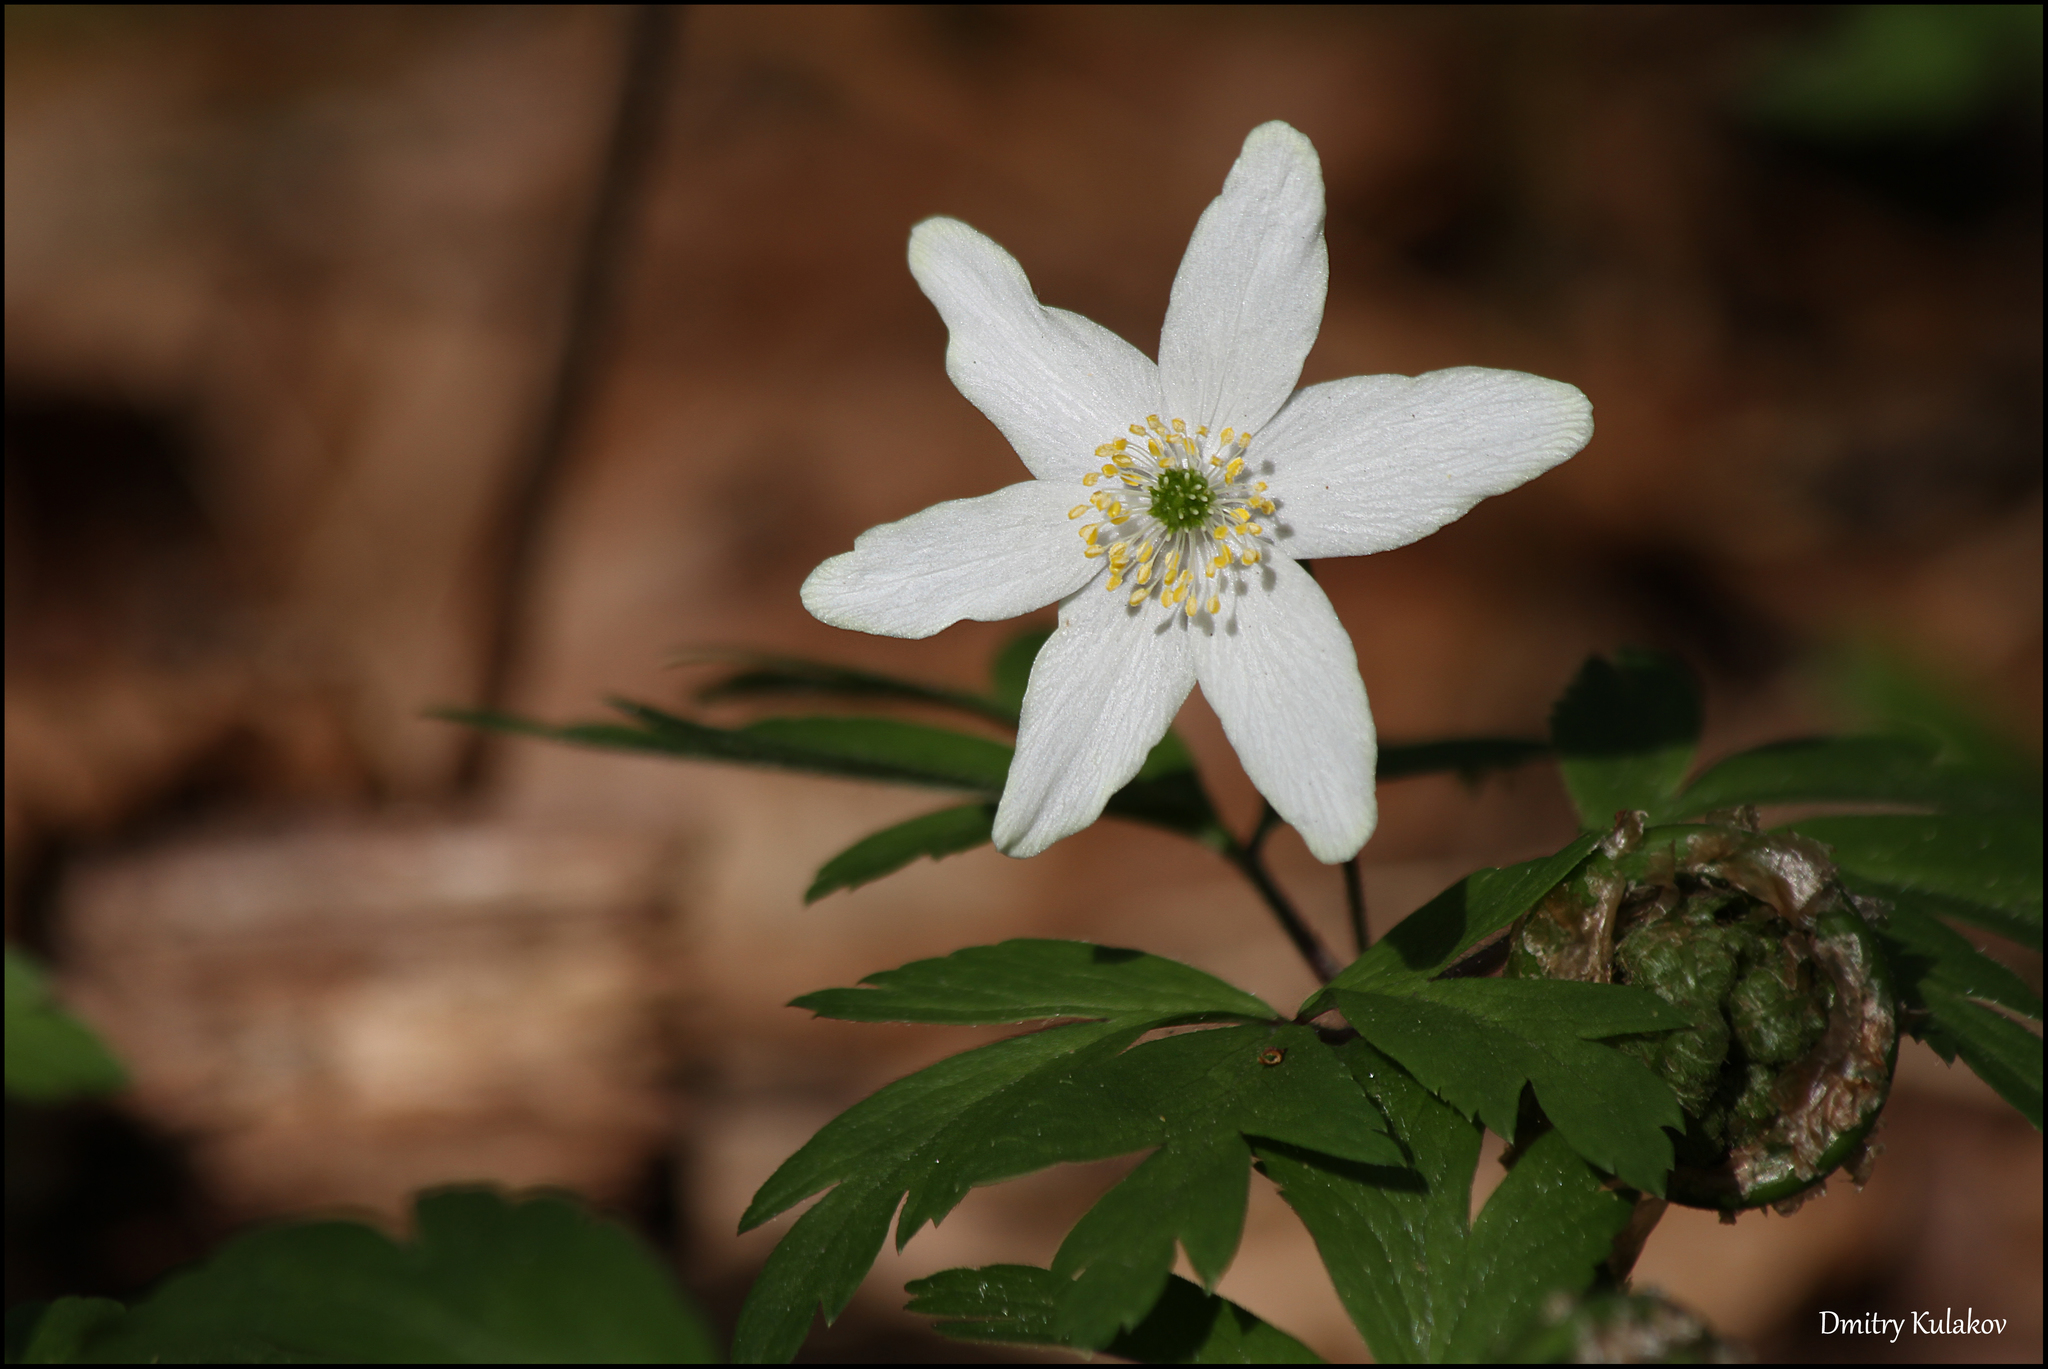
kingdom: Plantae
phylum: Tracheophyta
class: Magnoliopsida
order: Ranunculales
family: Ranunculaceae
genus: Anemone
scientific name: Anemone nemorosa
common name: Wood anemone
